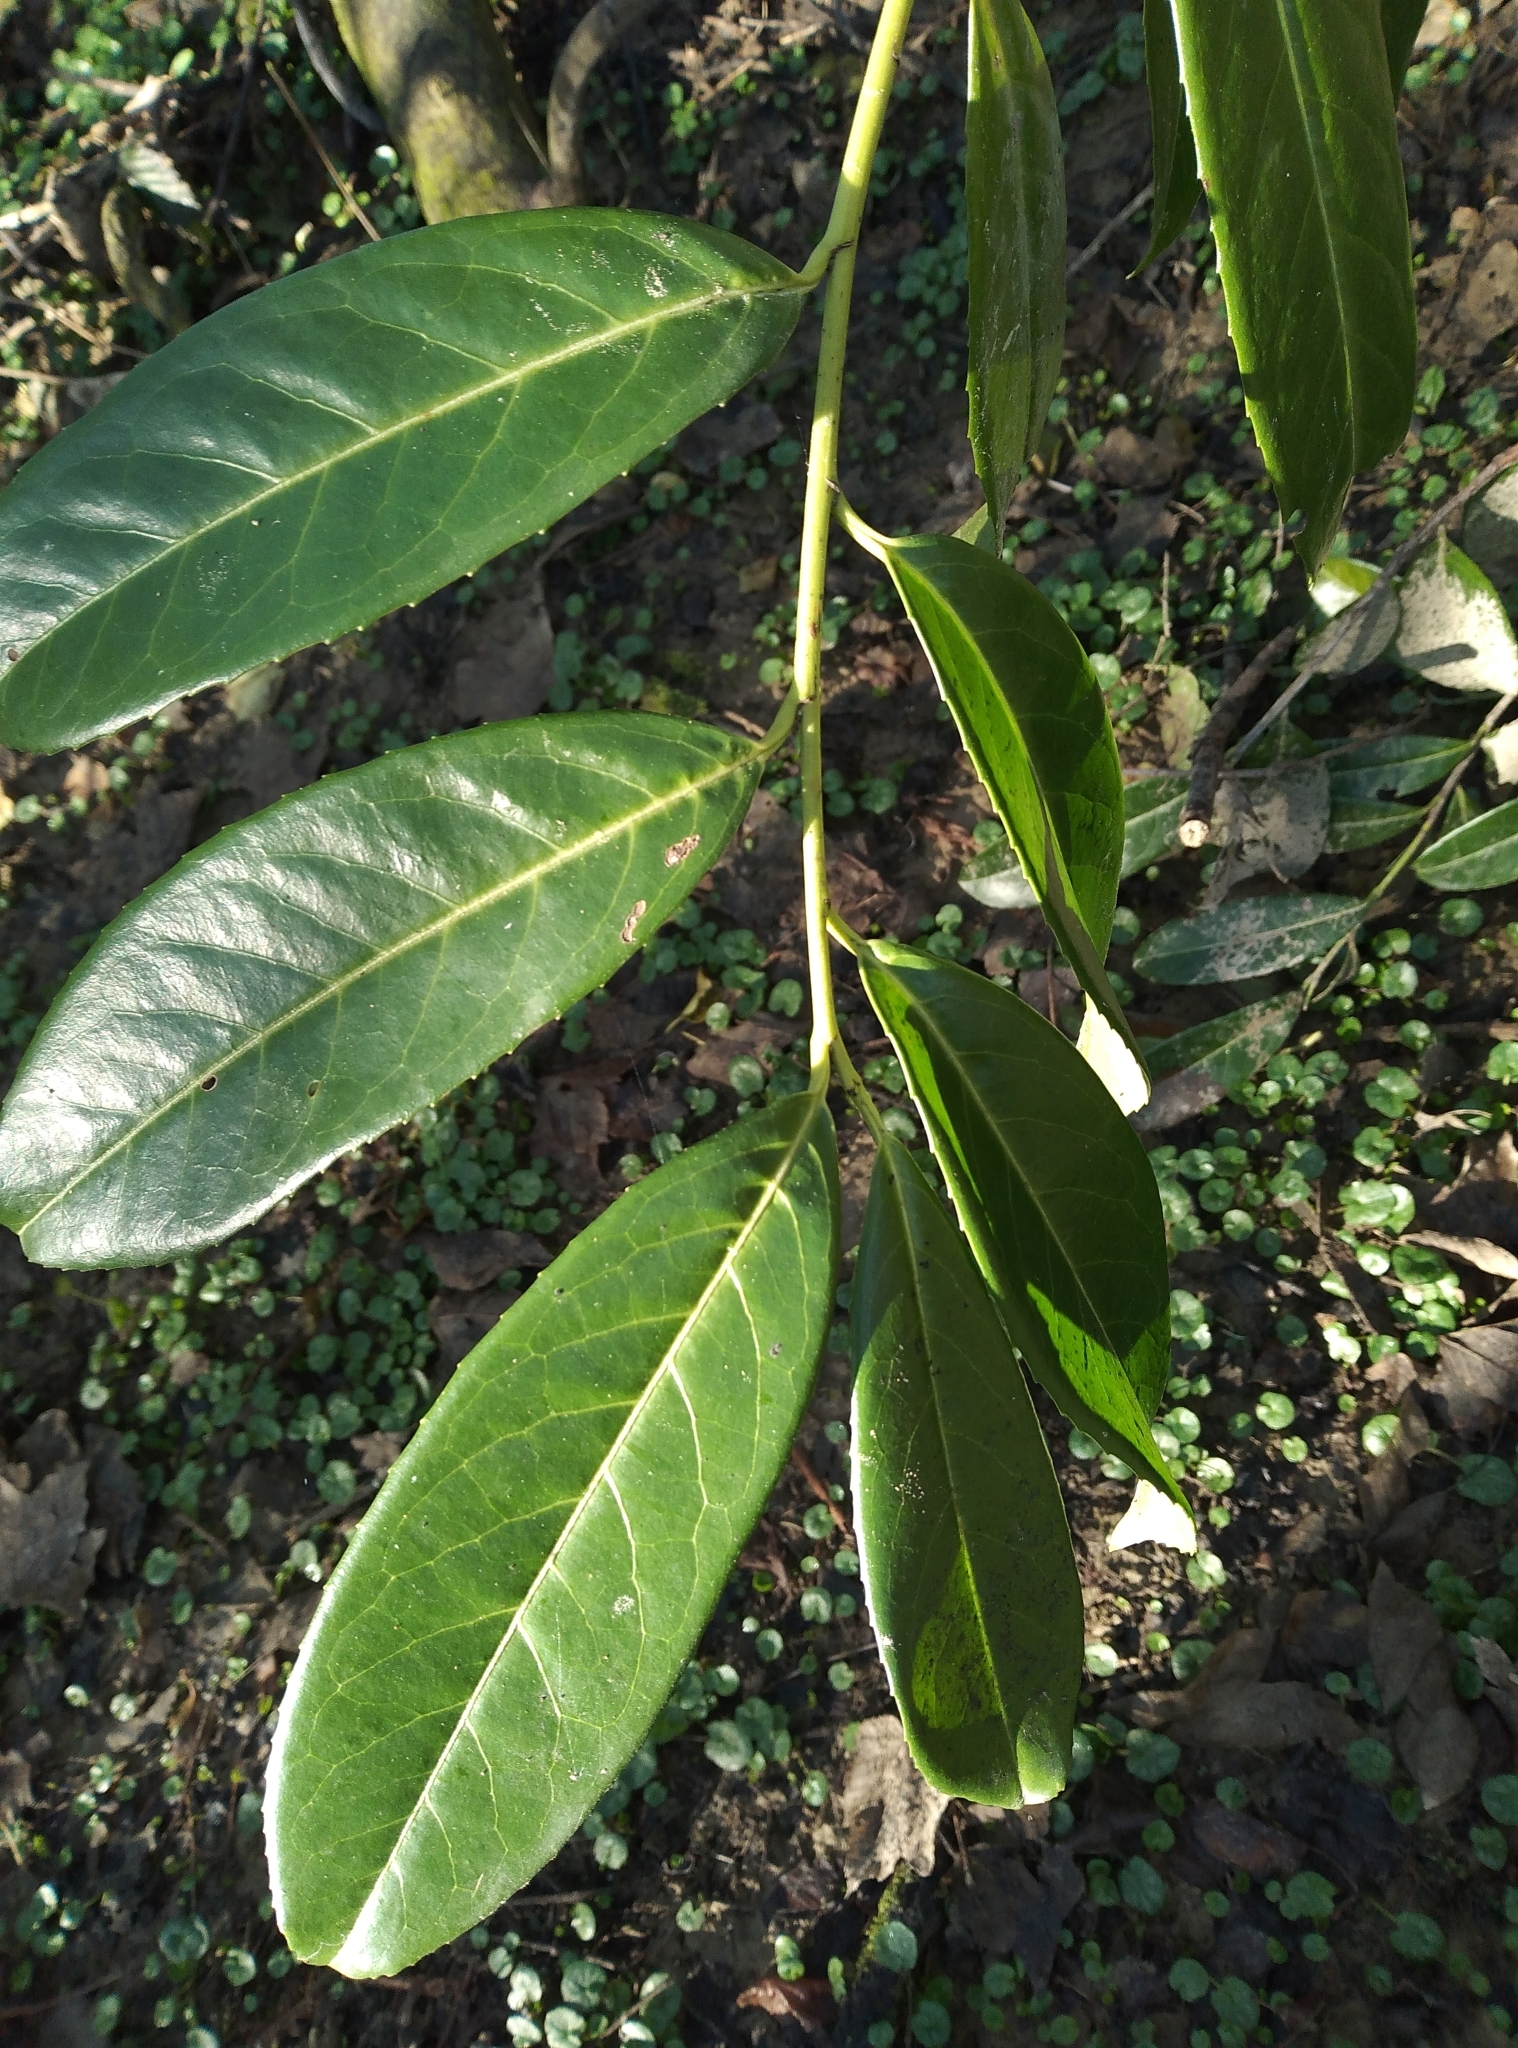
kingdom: Plantae
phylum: Tracheophyta
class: Magnoliopsida
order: Rosales
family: Rosaceae
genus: Prunus
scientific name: Prunus laurocerasus
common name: Cherry laurel
